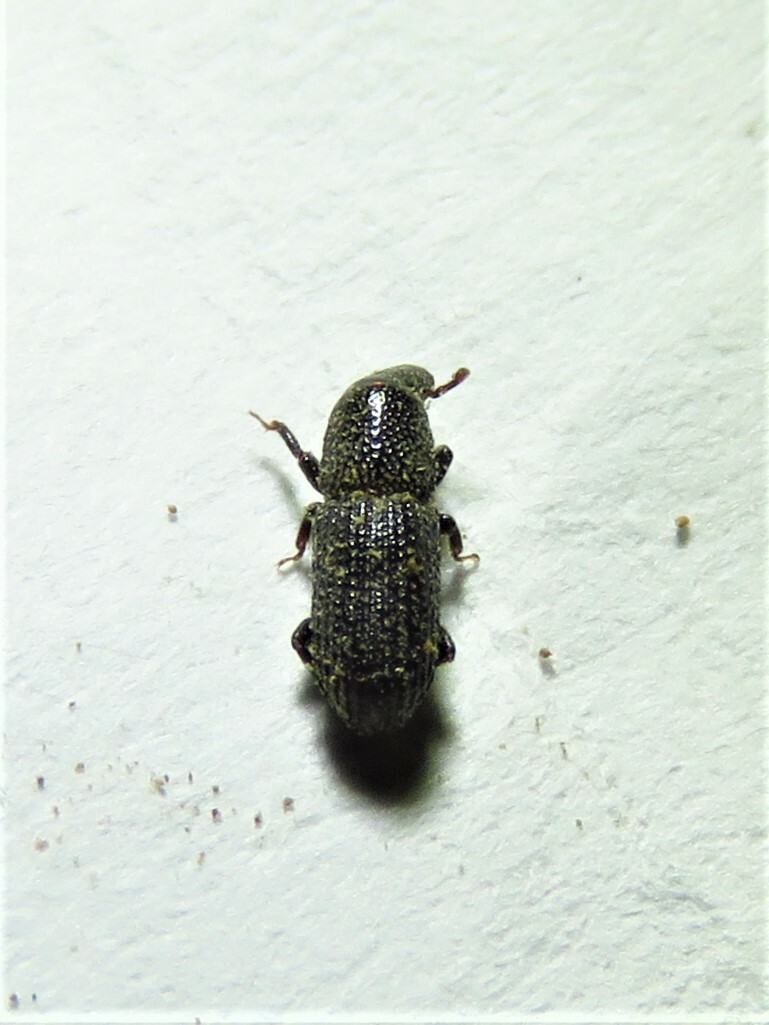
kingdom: Animalia
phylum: Arthropoda
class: Insecta
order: Coleoptera
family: Curculionidae
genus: Tomolips
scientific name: Tomolips quercicola
